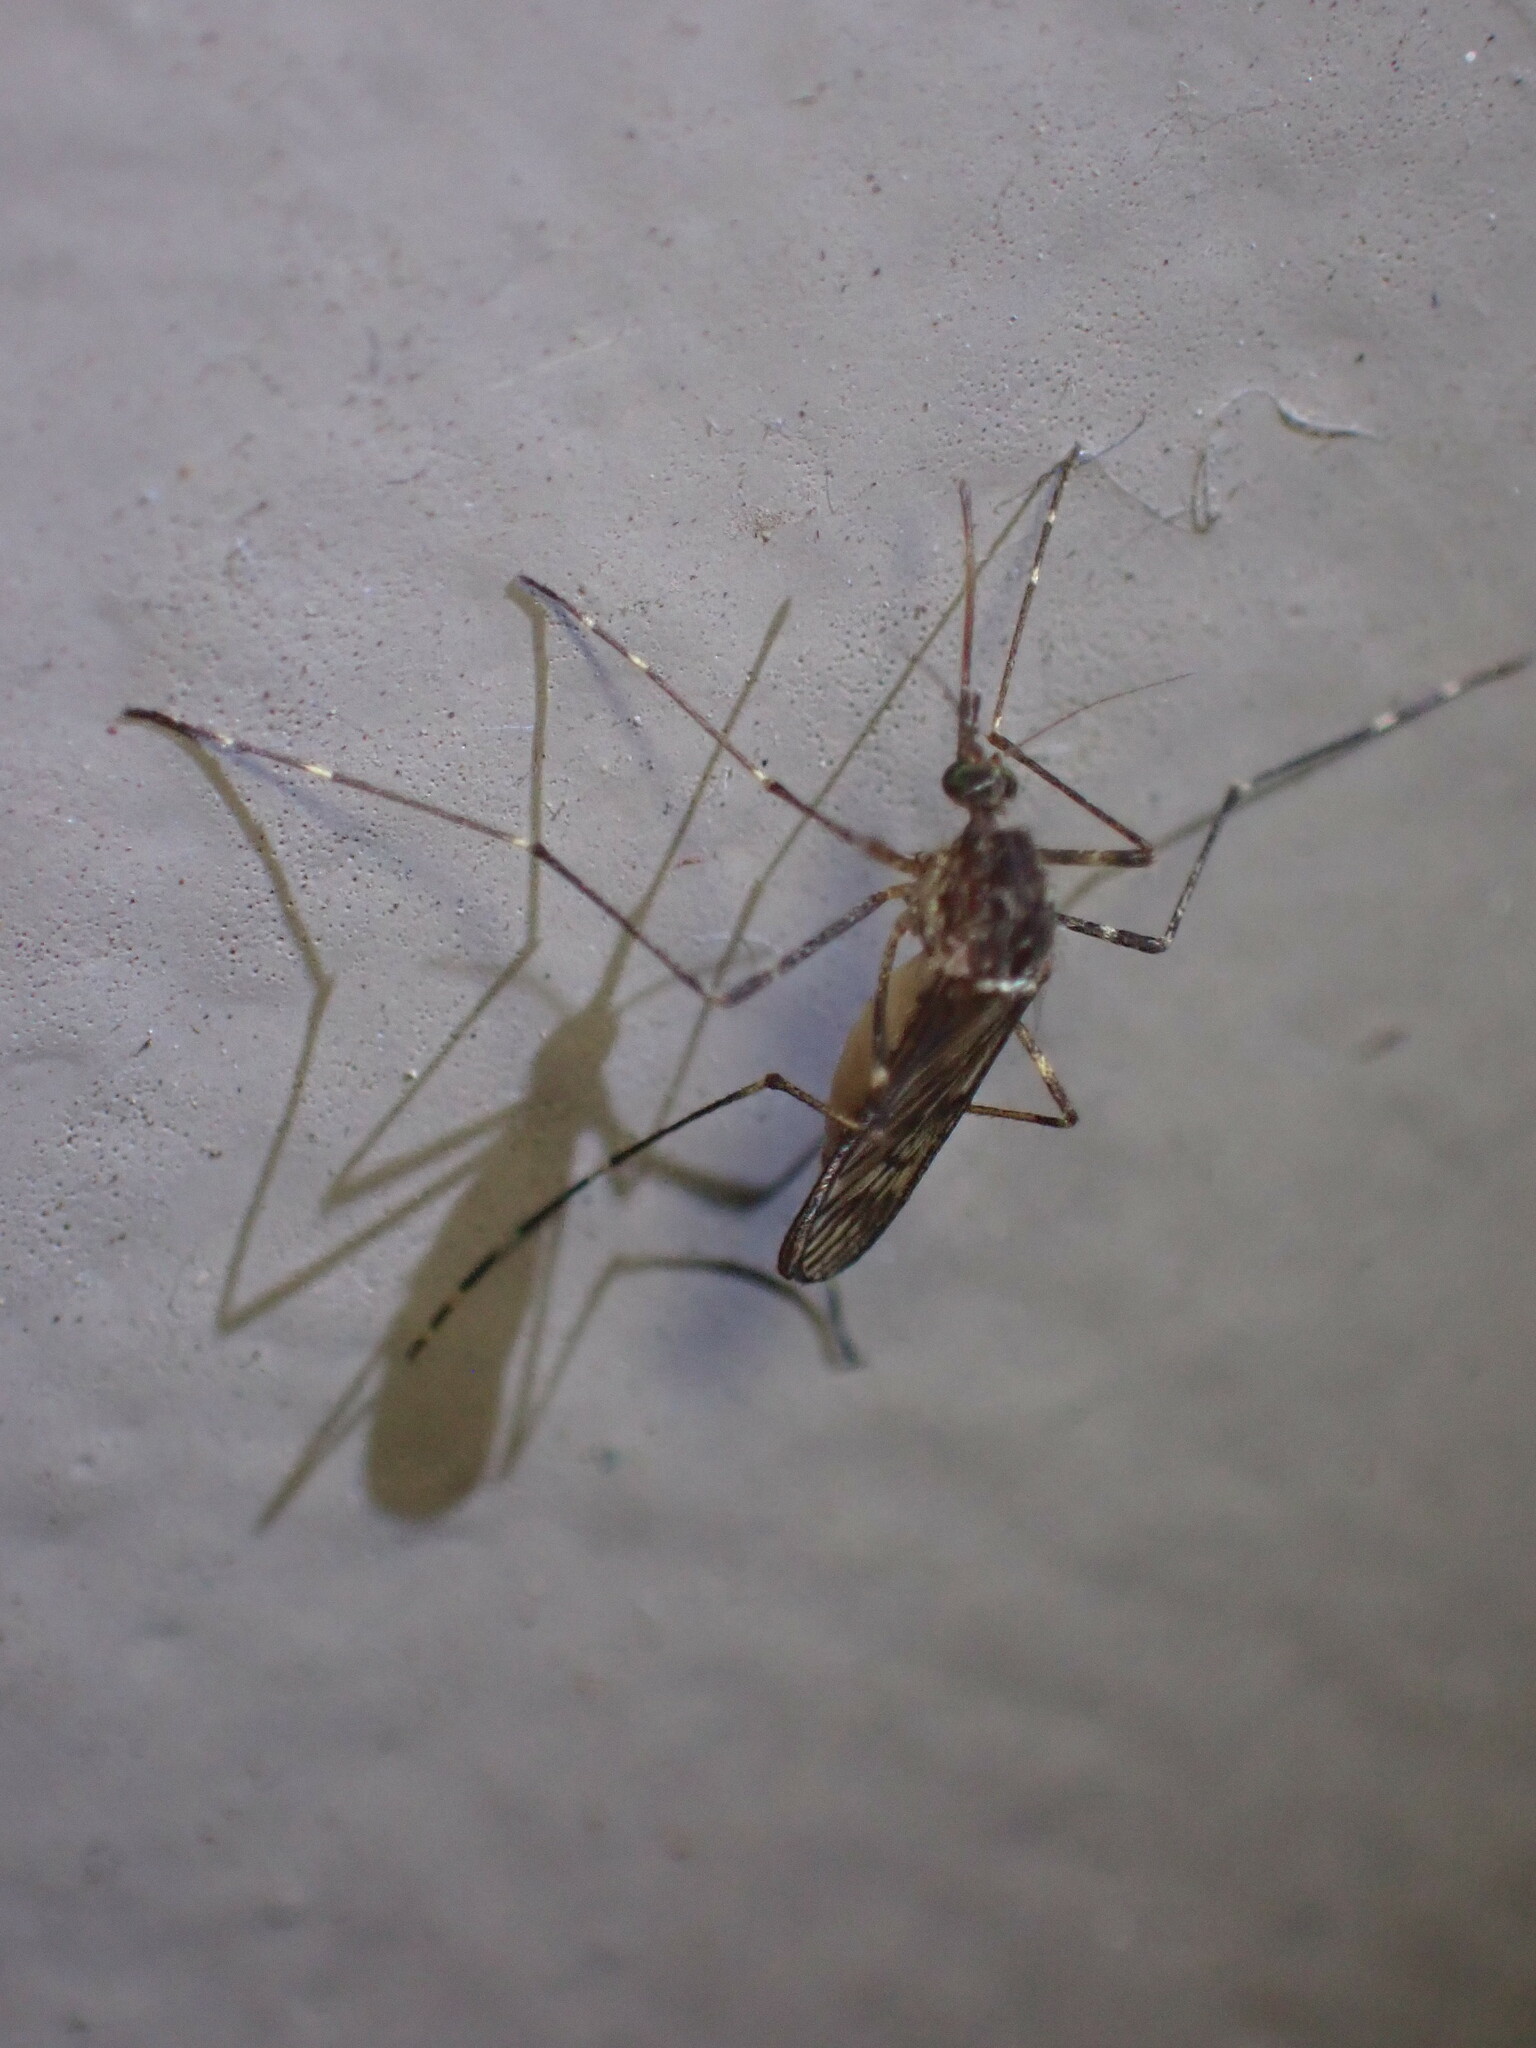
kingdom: Animalia
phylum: Arthropoda
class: Insecta
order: Diptera
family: Culicidae
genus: Culiseta
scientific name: Culiseta particeps
